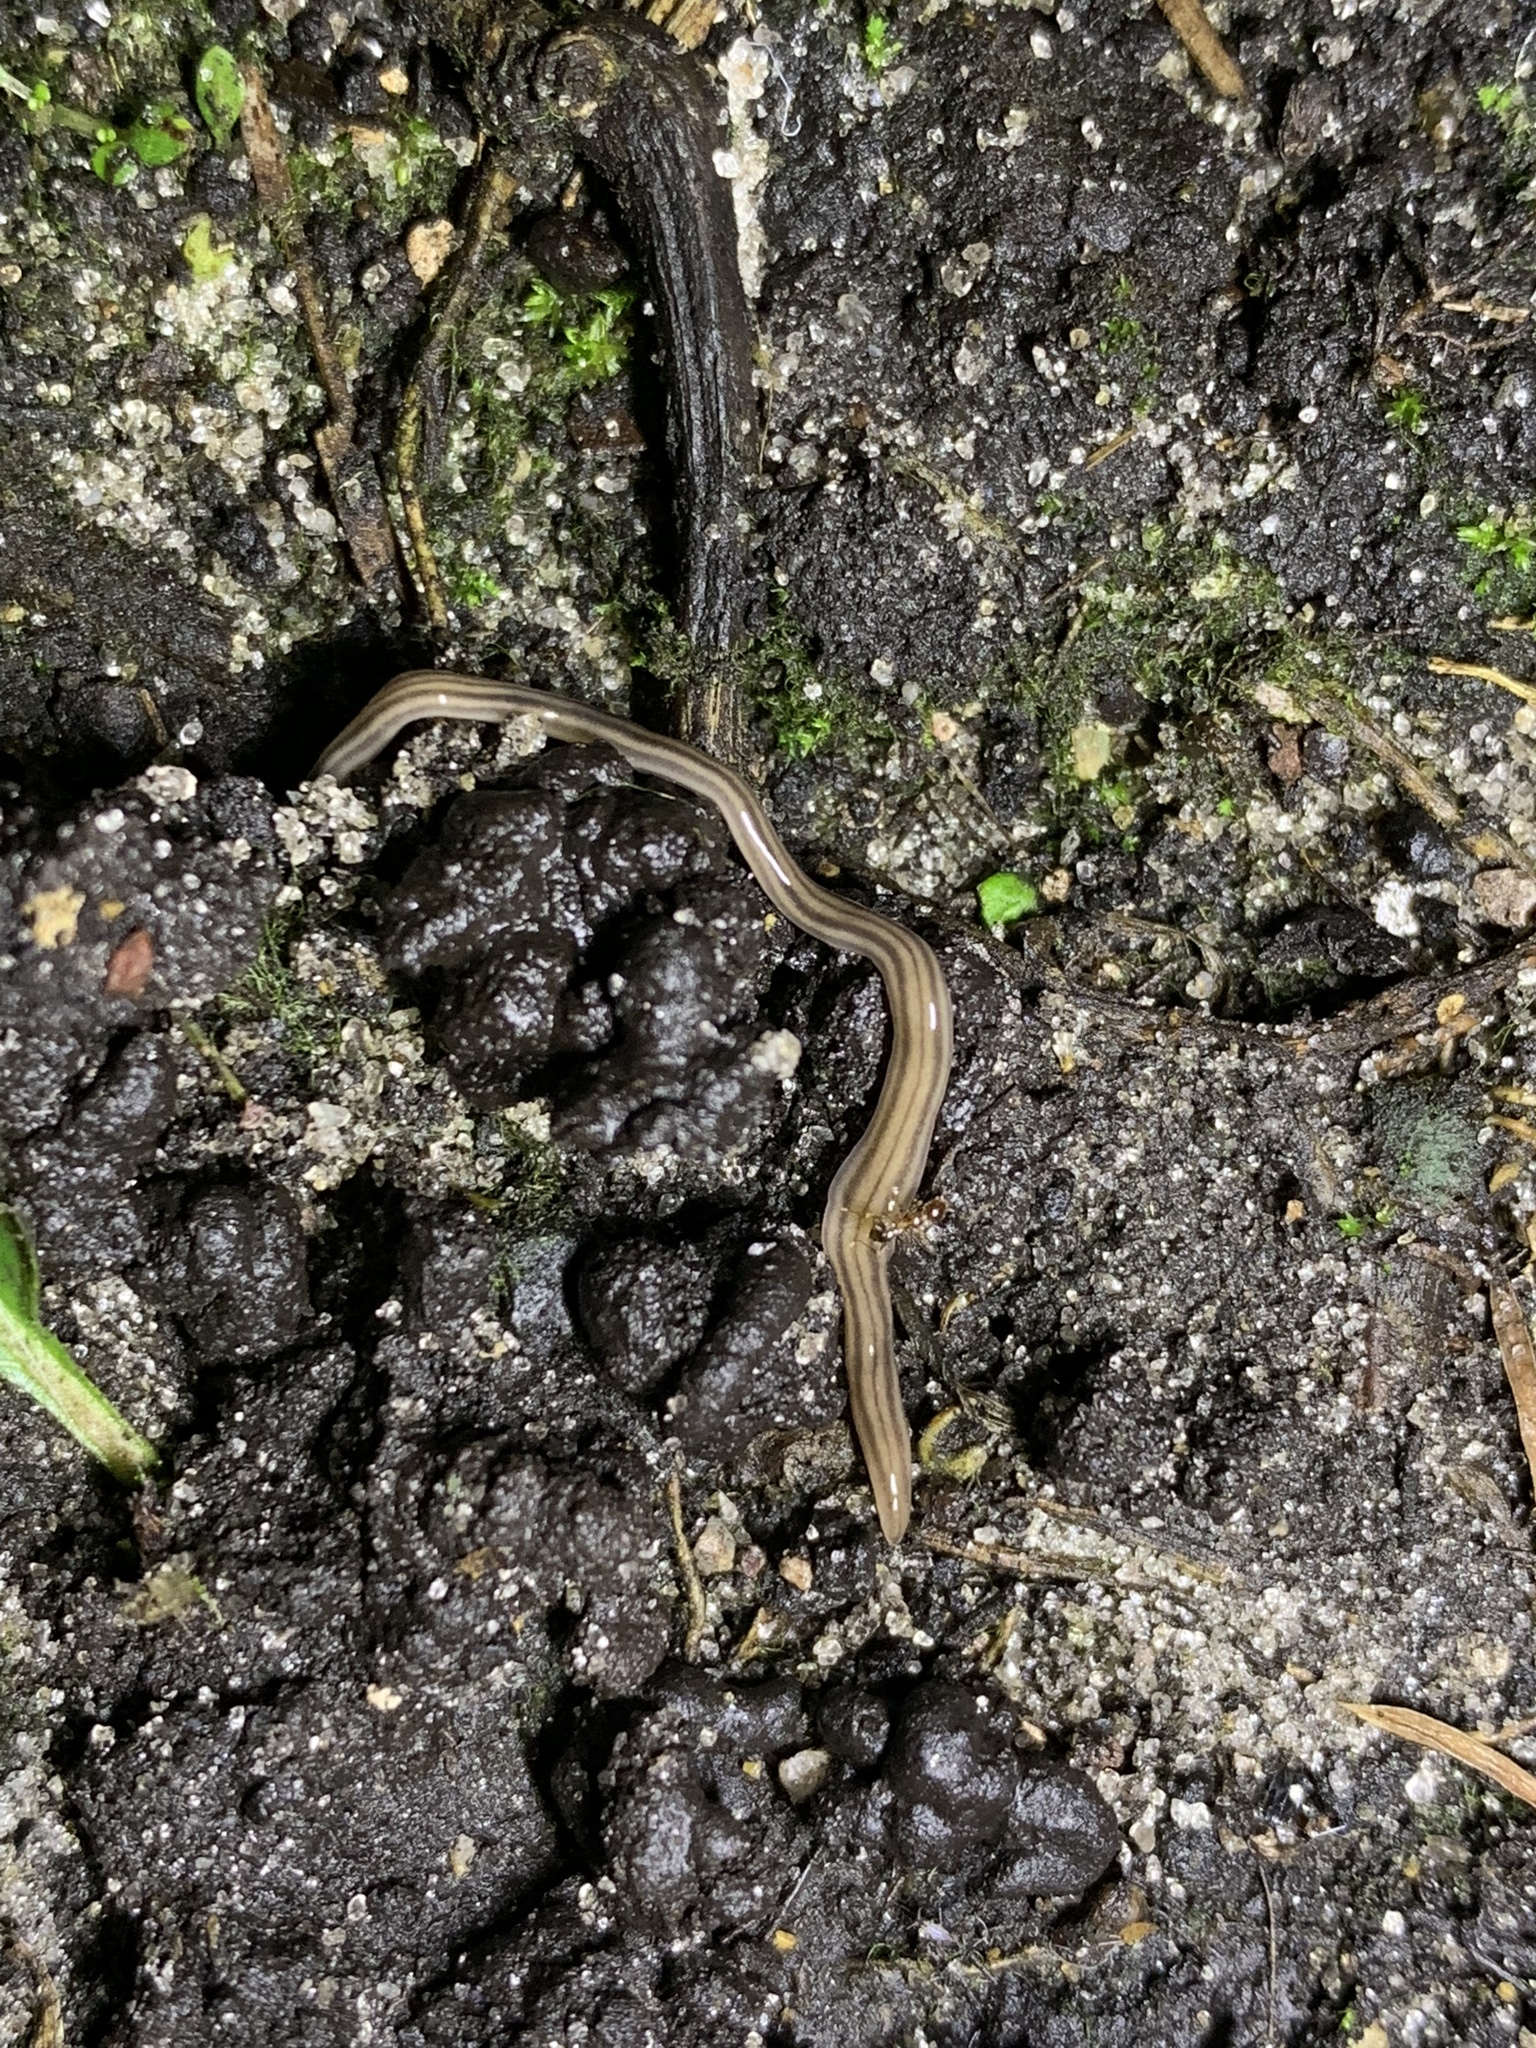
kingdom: Animalia
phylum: Platyhelminthes
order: Tricladida
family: Geoplanidae
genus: Bipalium
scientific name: Bipalium kewense
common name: Hammerhead flatworm
